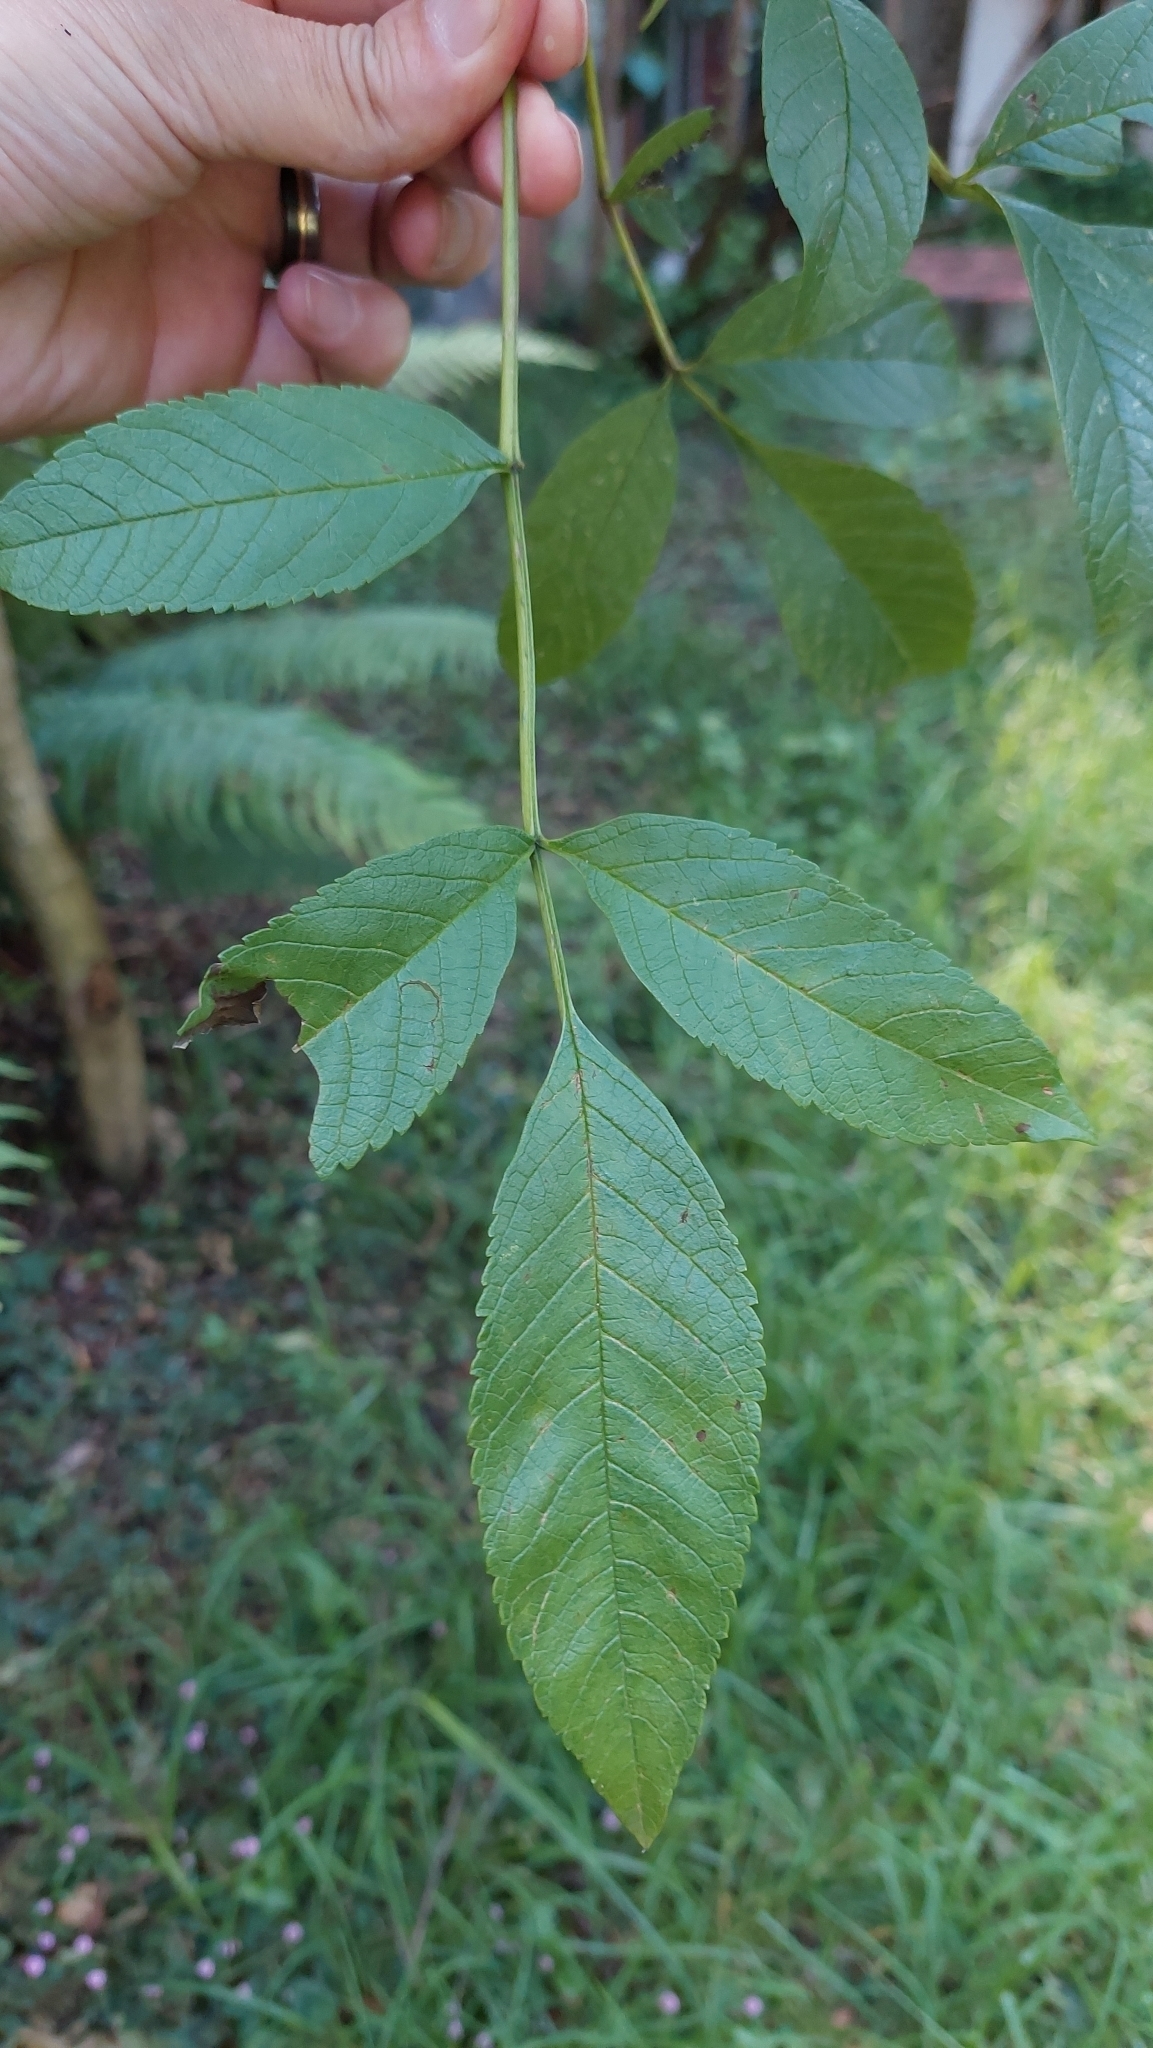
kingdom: Plantae
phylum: Tracheophyta
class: Magnoliopsida
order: Lamiales
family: Oleaceae
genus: Fraxinus
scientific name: Fraxinus uhdei
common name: Shamel ash
